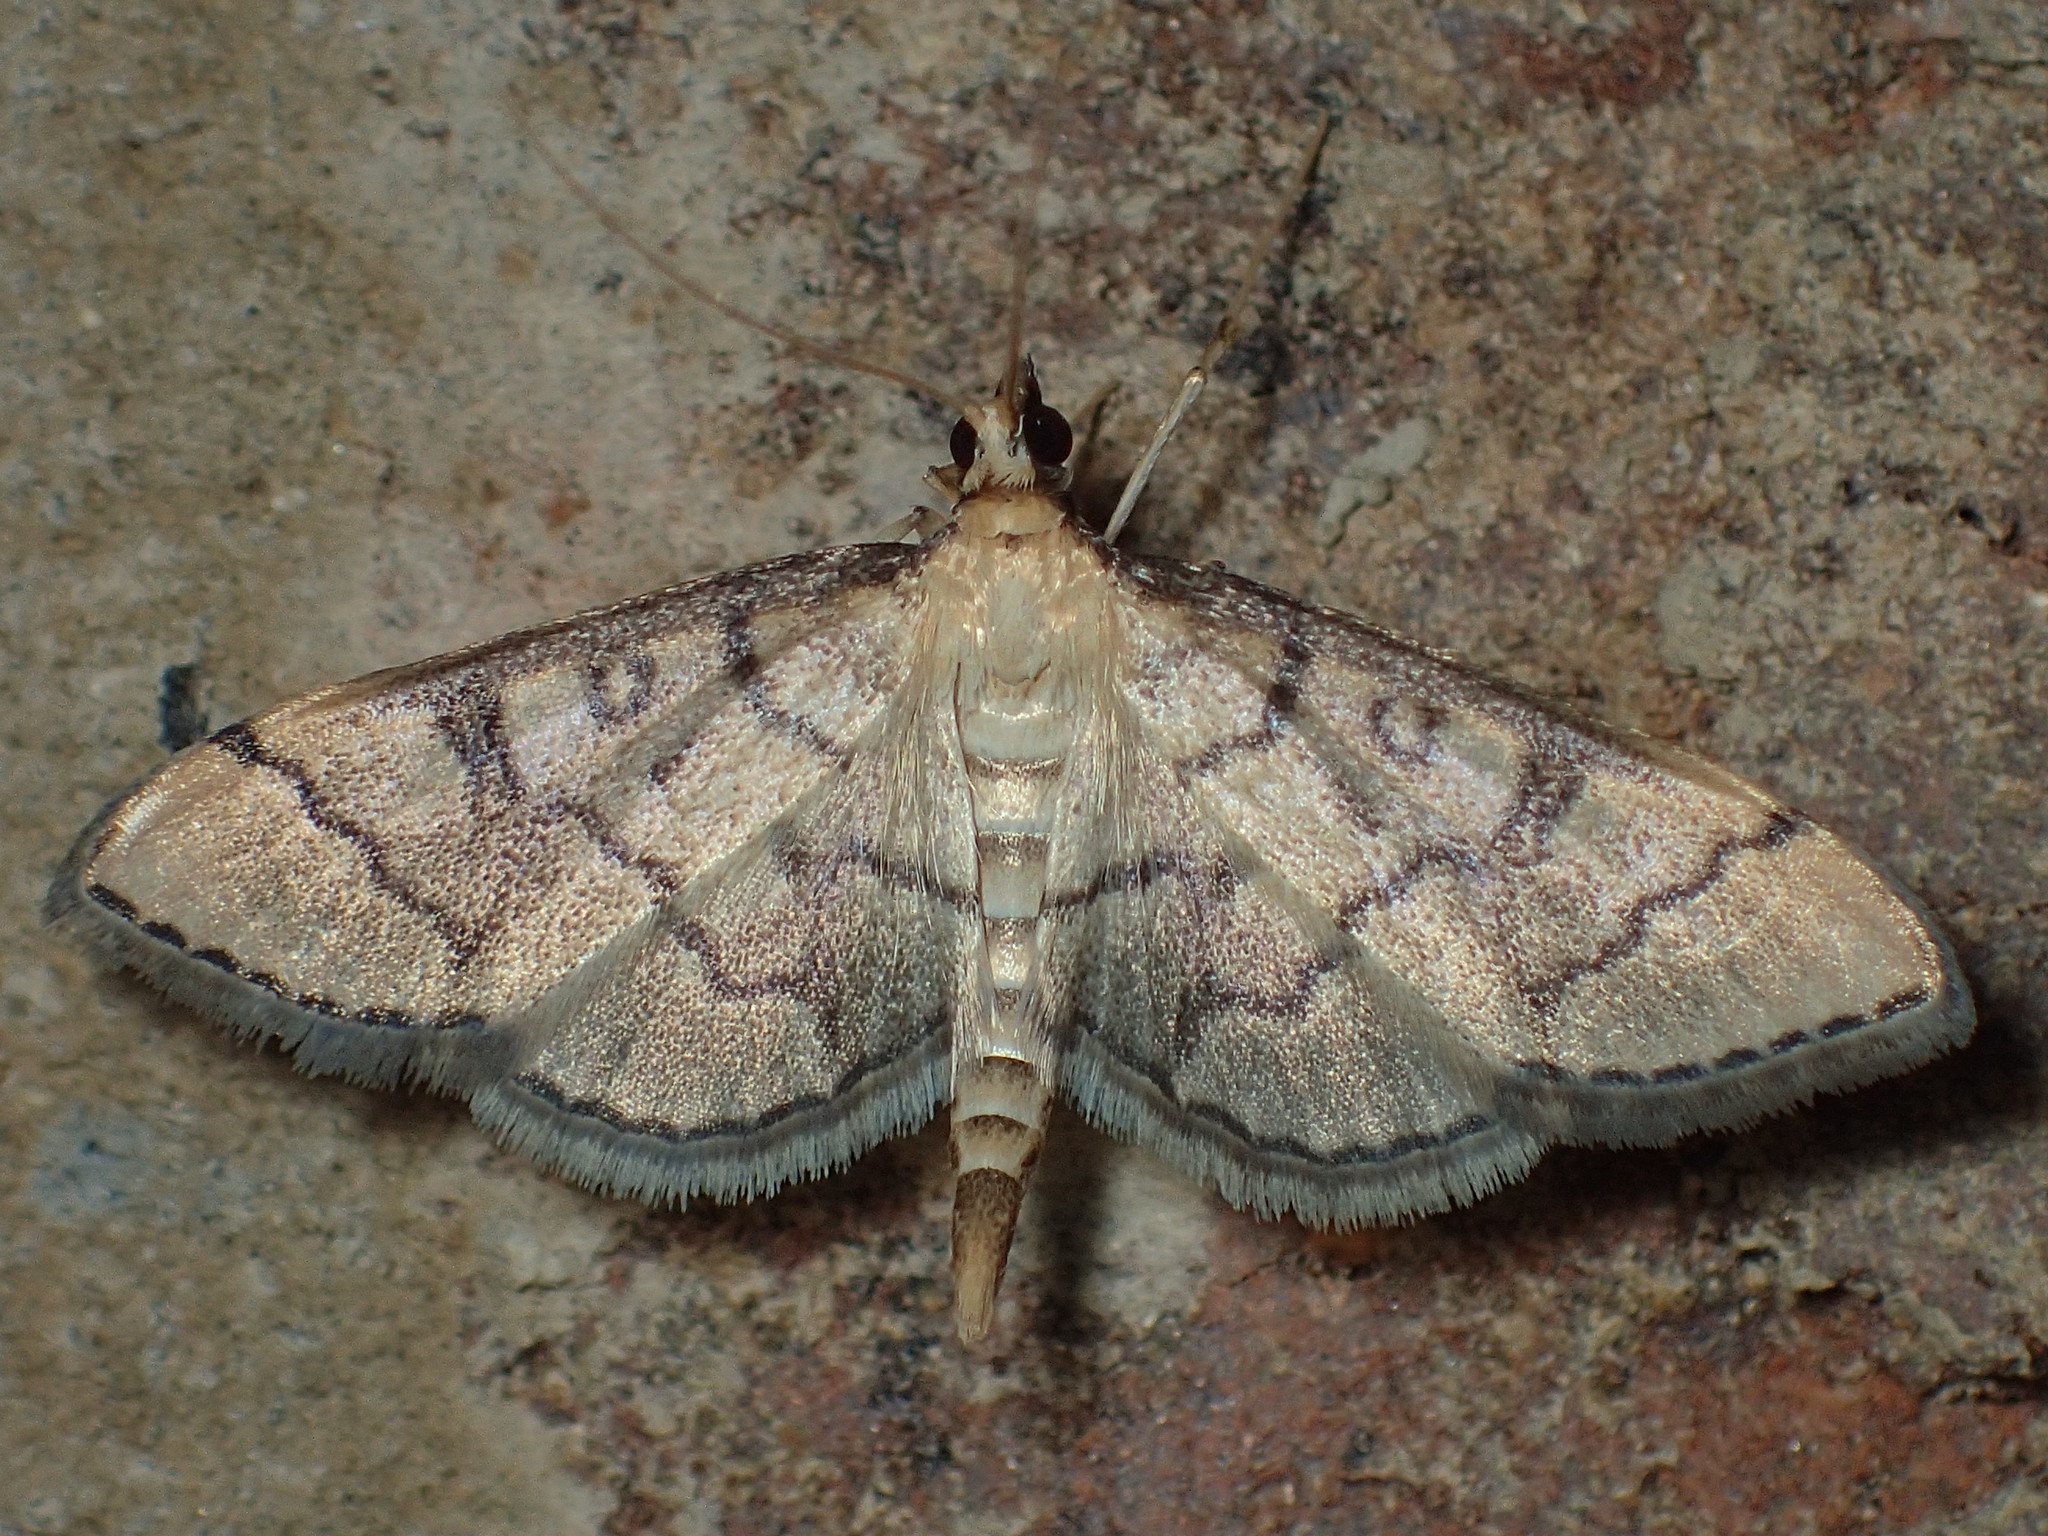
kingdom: Animalia
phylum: Arthropoda
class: Insecta
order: Lepidoptera
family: Crambidae
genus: Lamprosema
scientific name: Lamprosema Blepharomastix ranalis
